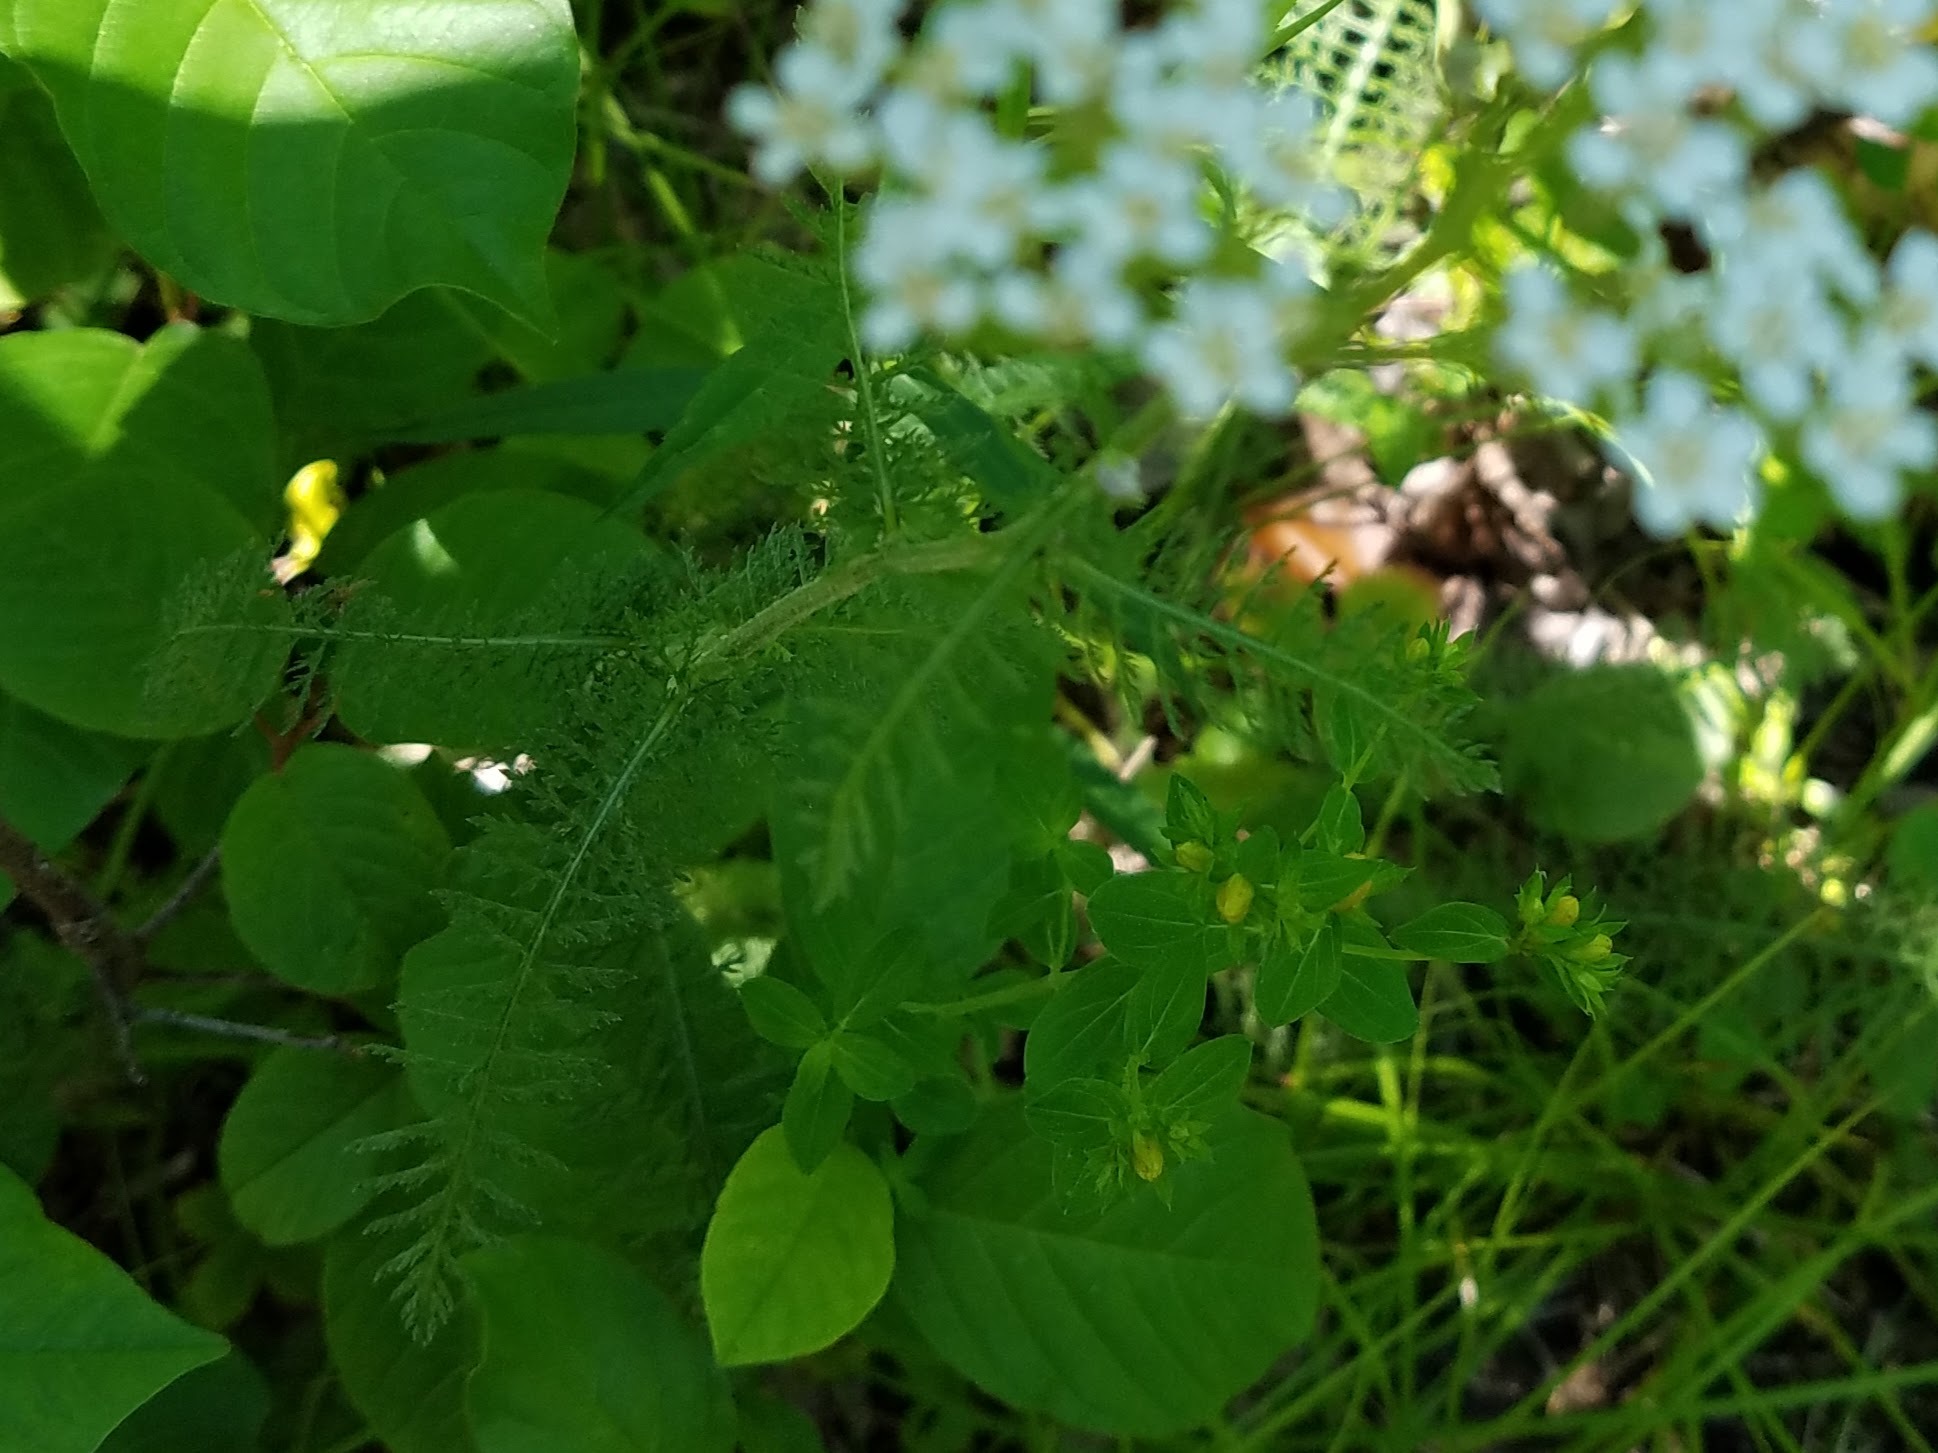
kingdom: Plantae
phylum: Tracheophyta
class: Magnoliopsida
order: Asterales
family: Asteraceae
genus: Achillea
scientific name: Achillea millefolium
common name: Yarrow
